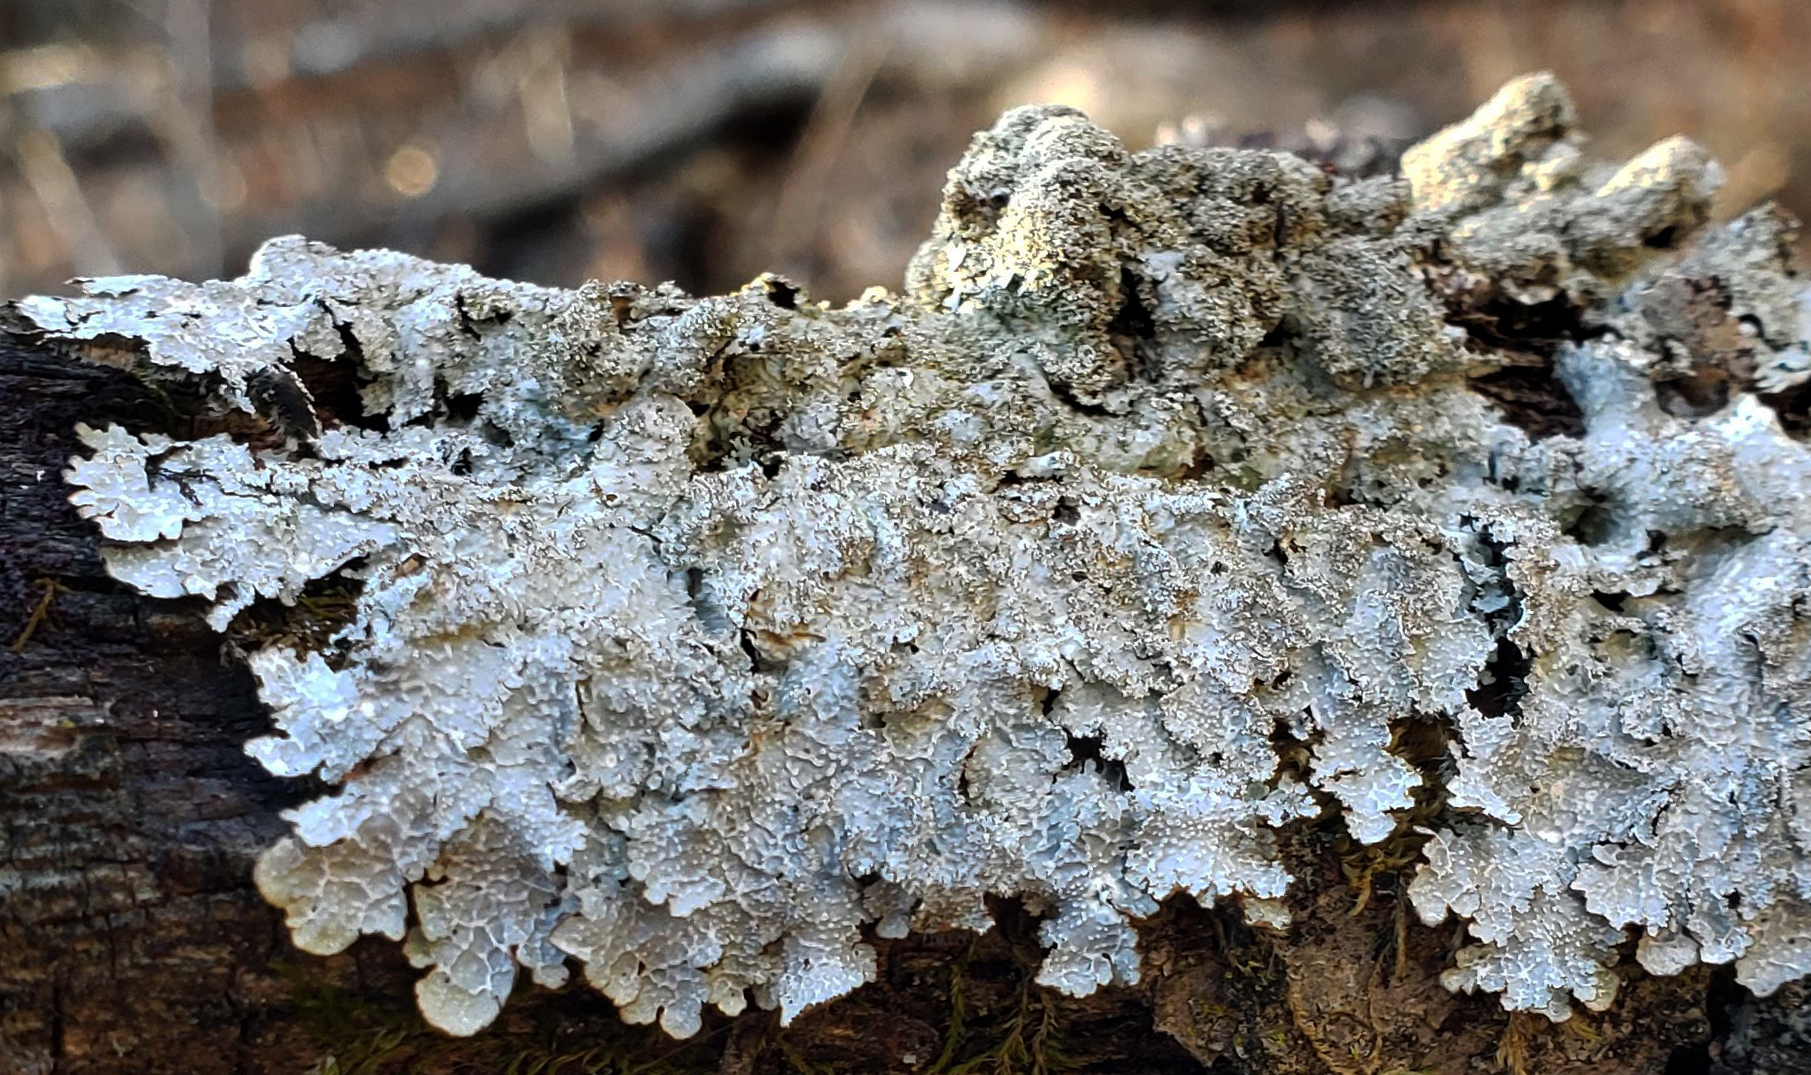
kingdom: Fungi
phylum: Ascomycota
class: Lecanoromycetes
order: Lecanorales
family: Parmeliaceae
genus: Punctelia
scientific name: Punctelia rudecta
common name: Rough speckled shield lichen
